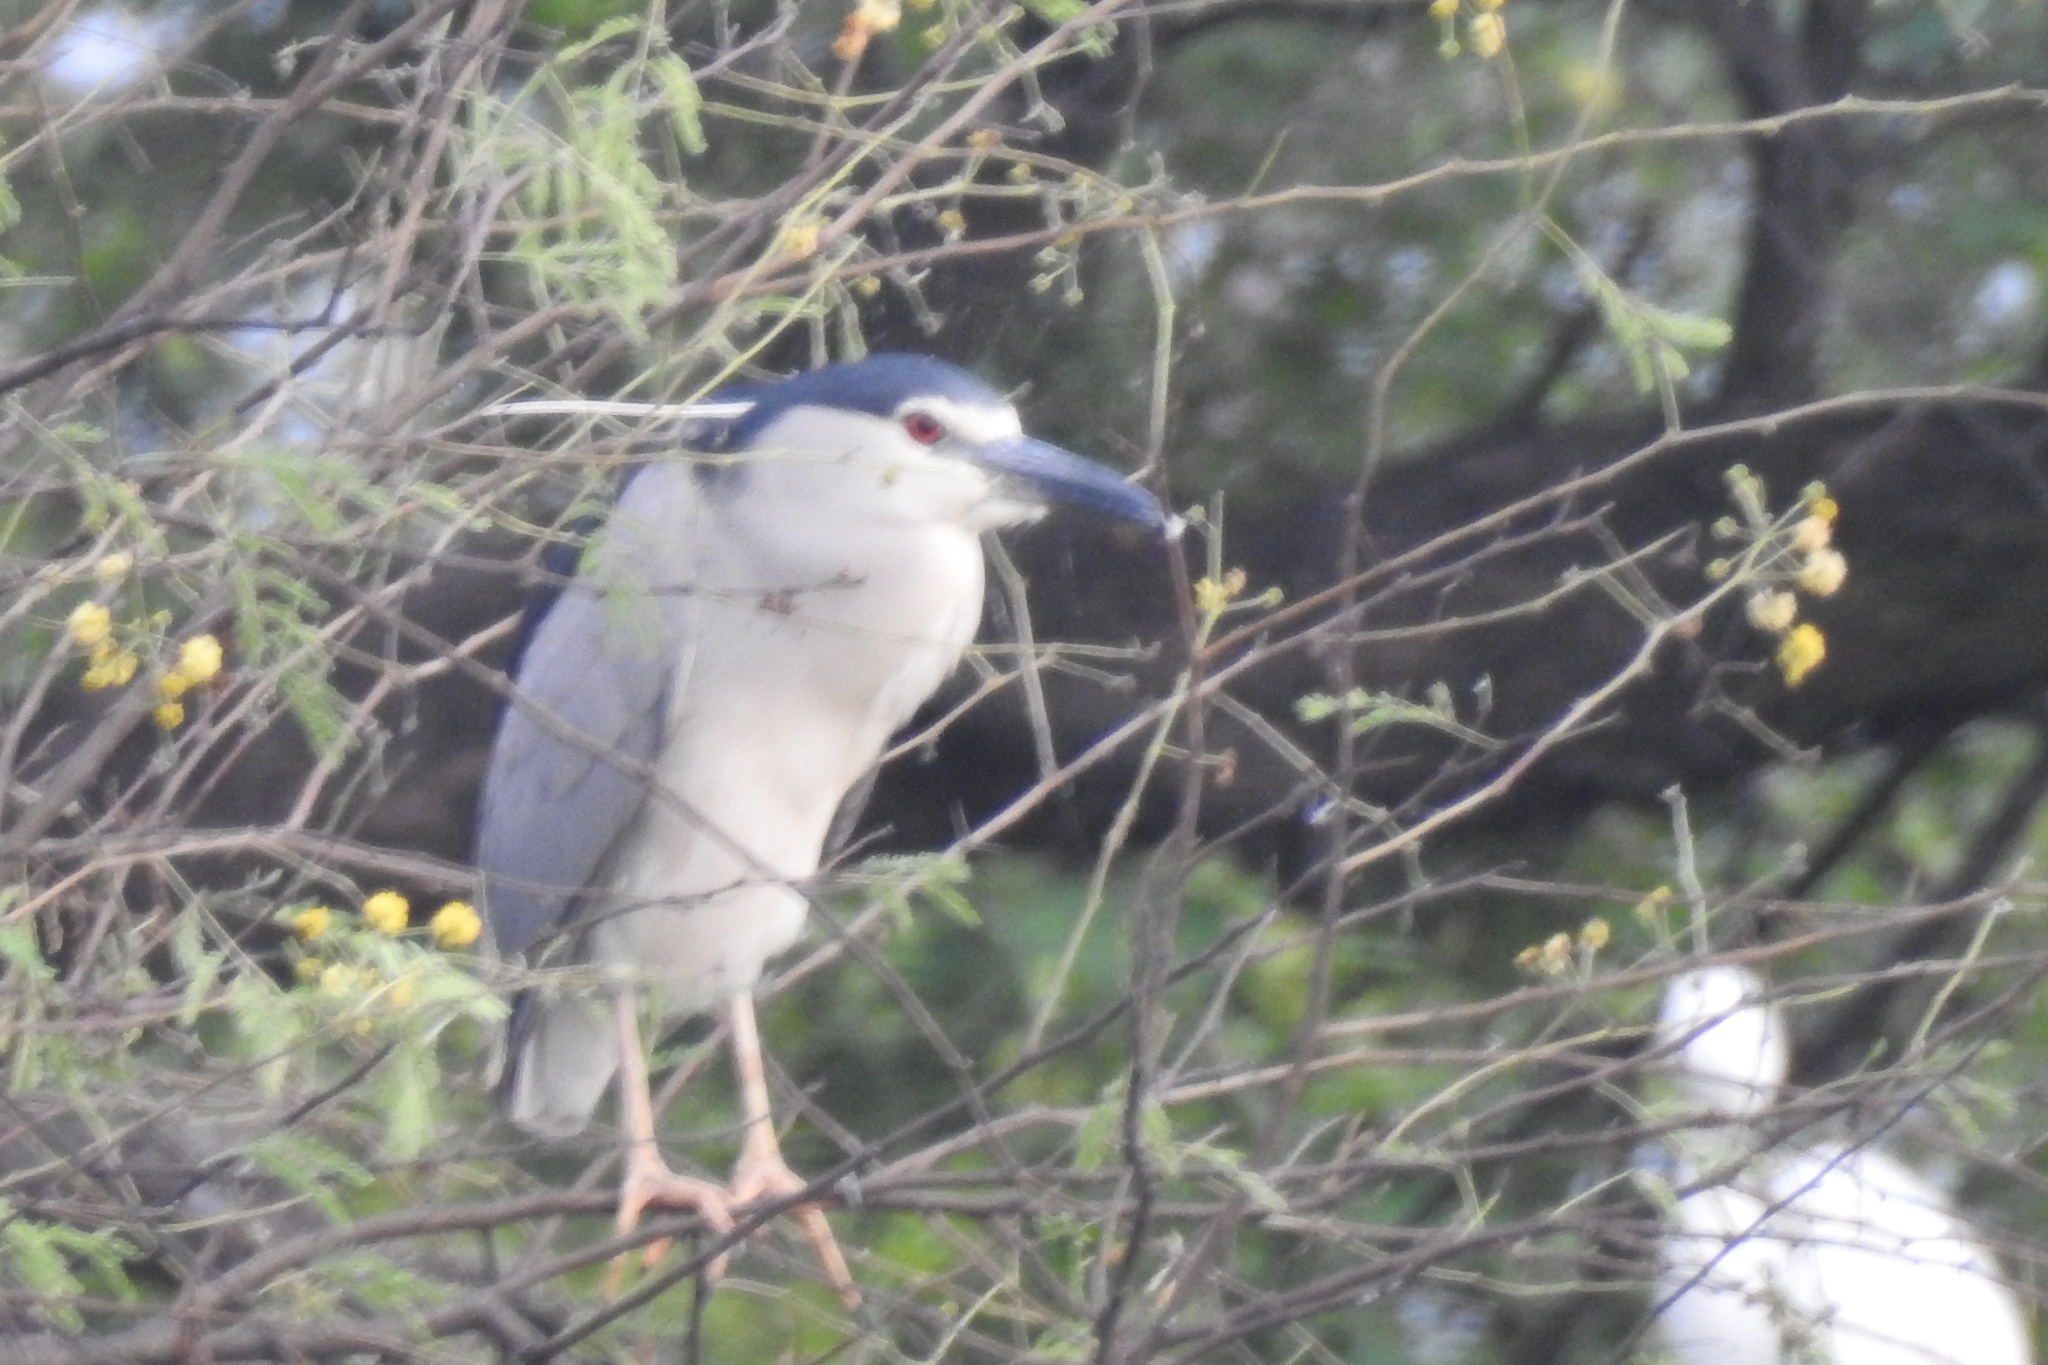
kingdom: Animalia
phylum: Chordata
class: Aves
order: Pelecaniformes
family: Ardeidae
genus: Nycticorax
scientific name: Nycticorax nycticorax
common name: Black-crowned night heron
